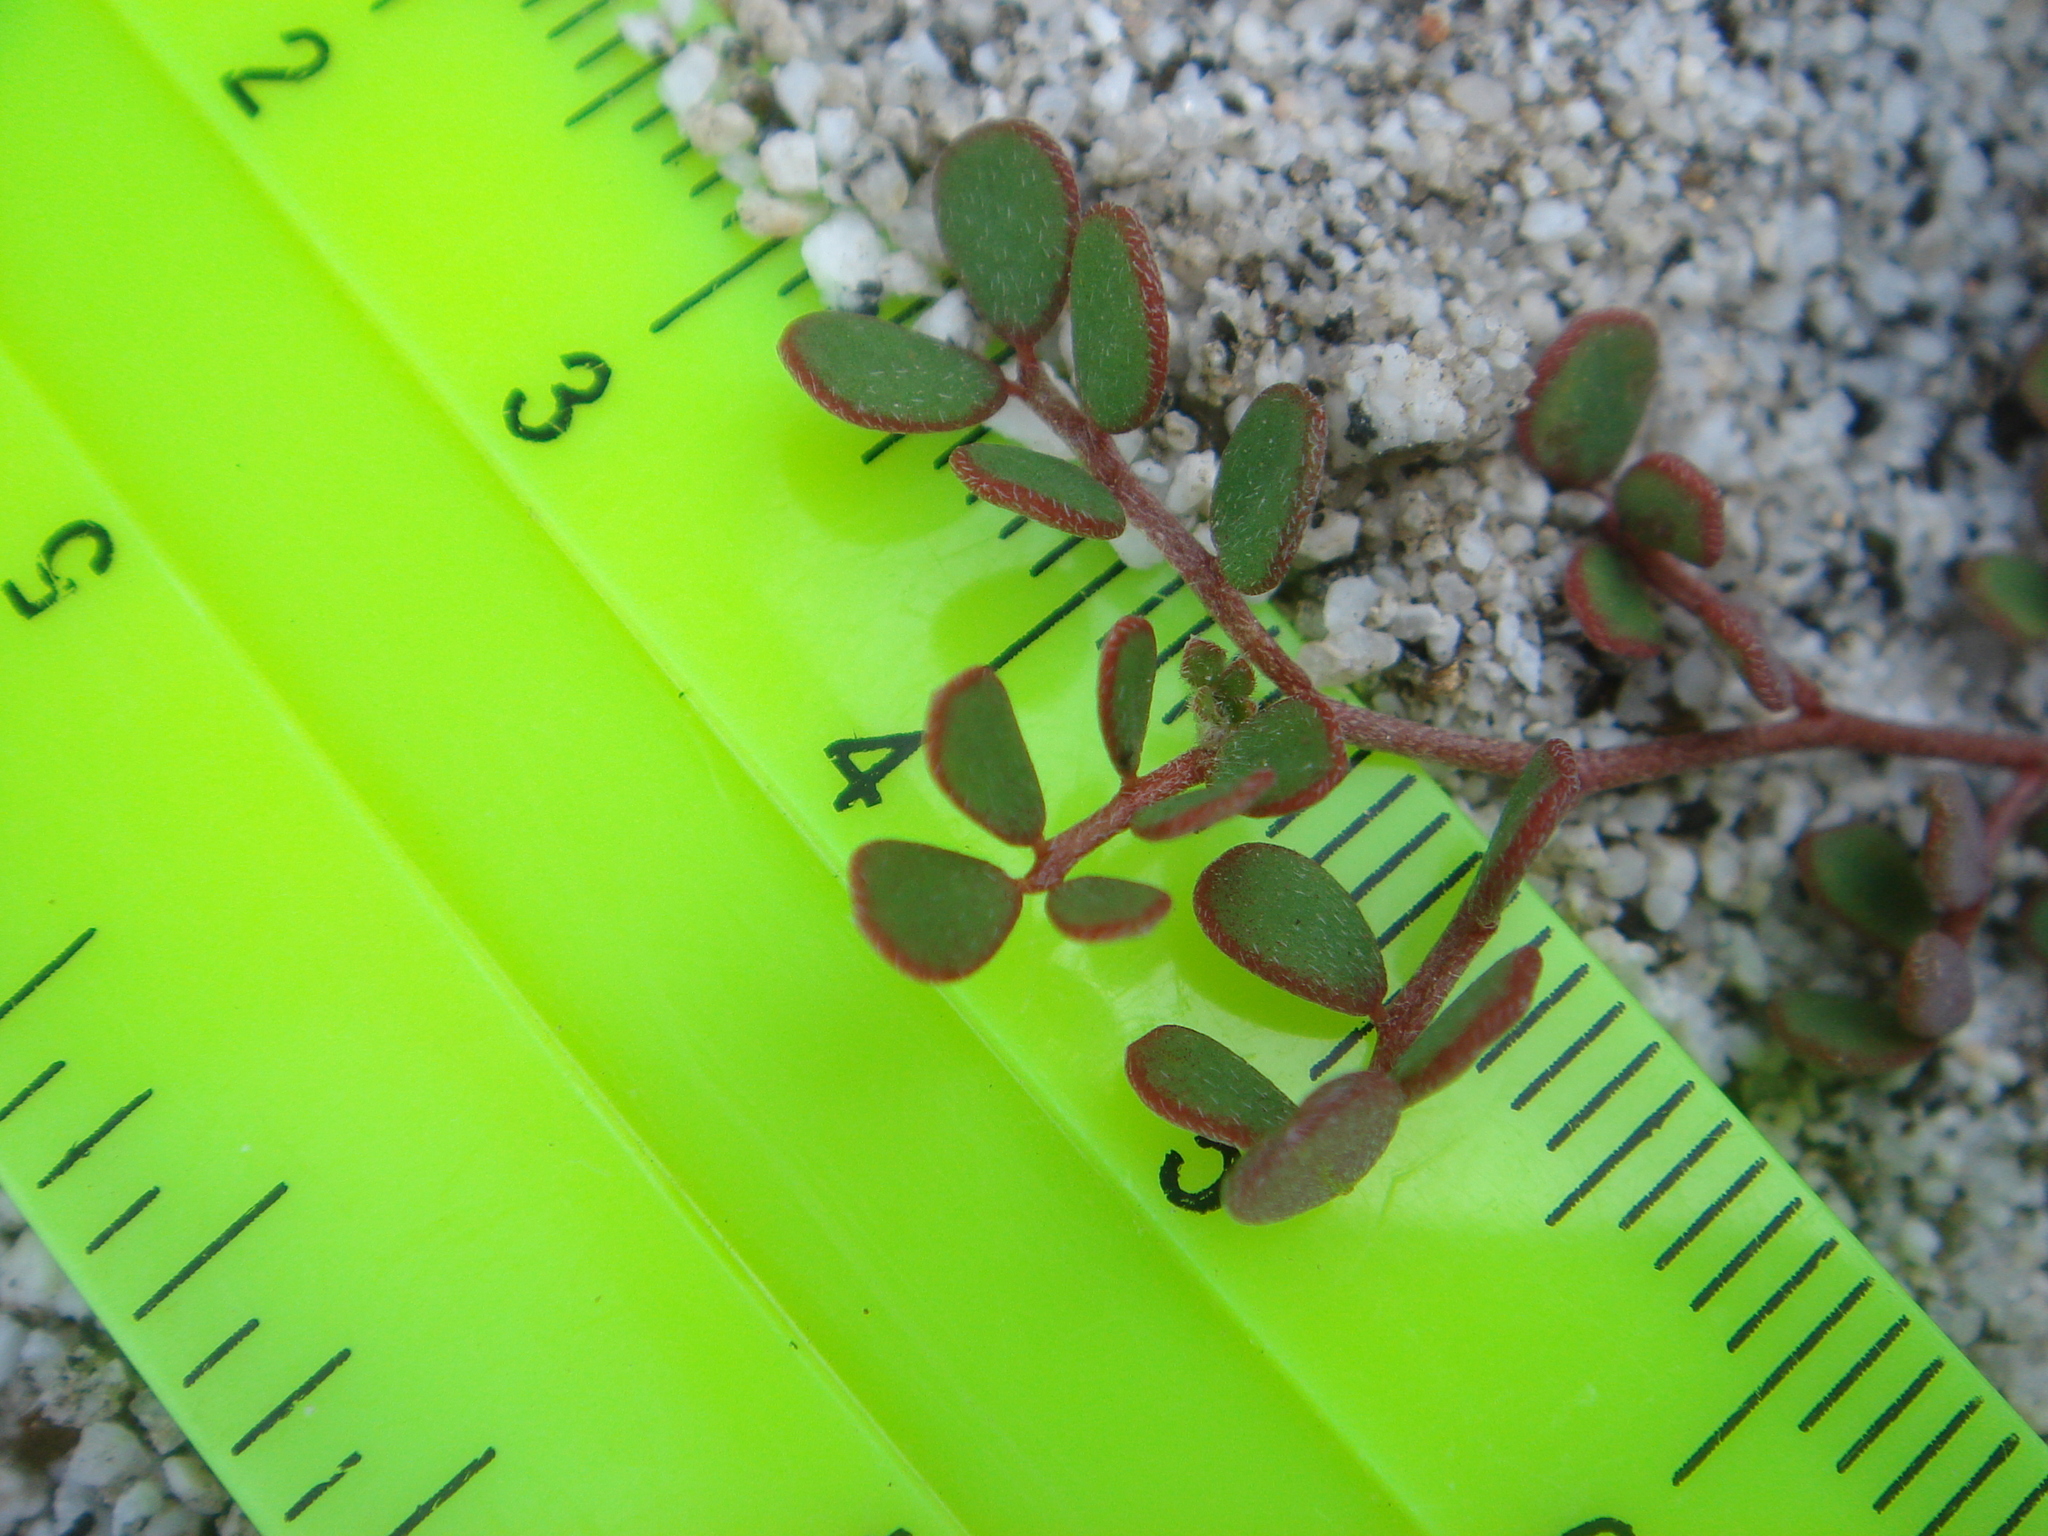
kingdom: Plantae
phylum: Tracheophyta
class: Magnoliopsida
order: Fabales
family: Fabaceae
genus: Acmispon
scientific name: Acmispon maritimus
